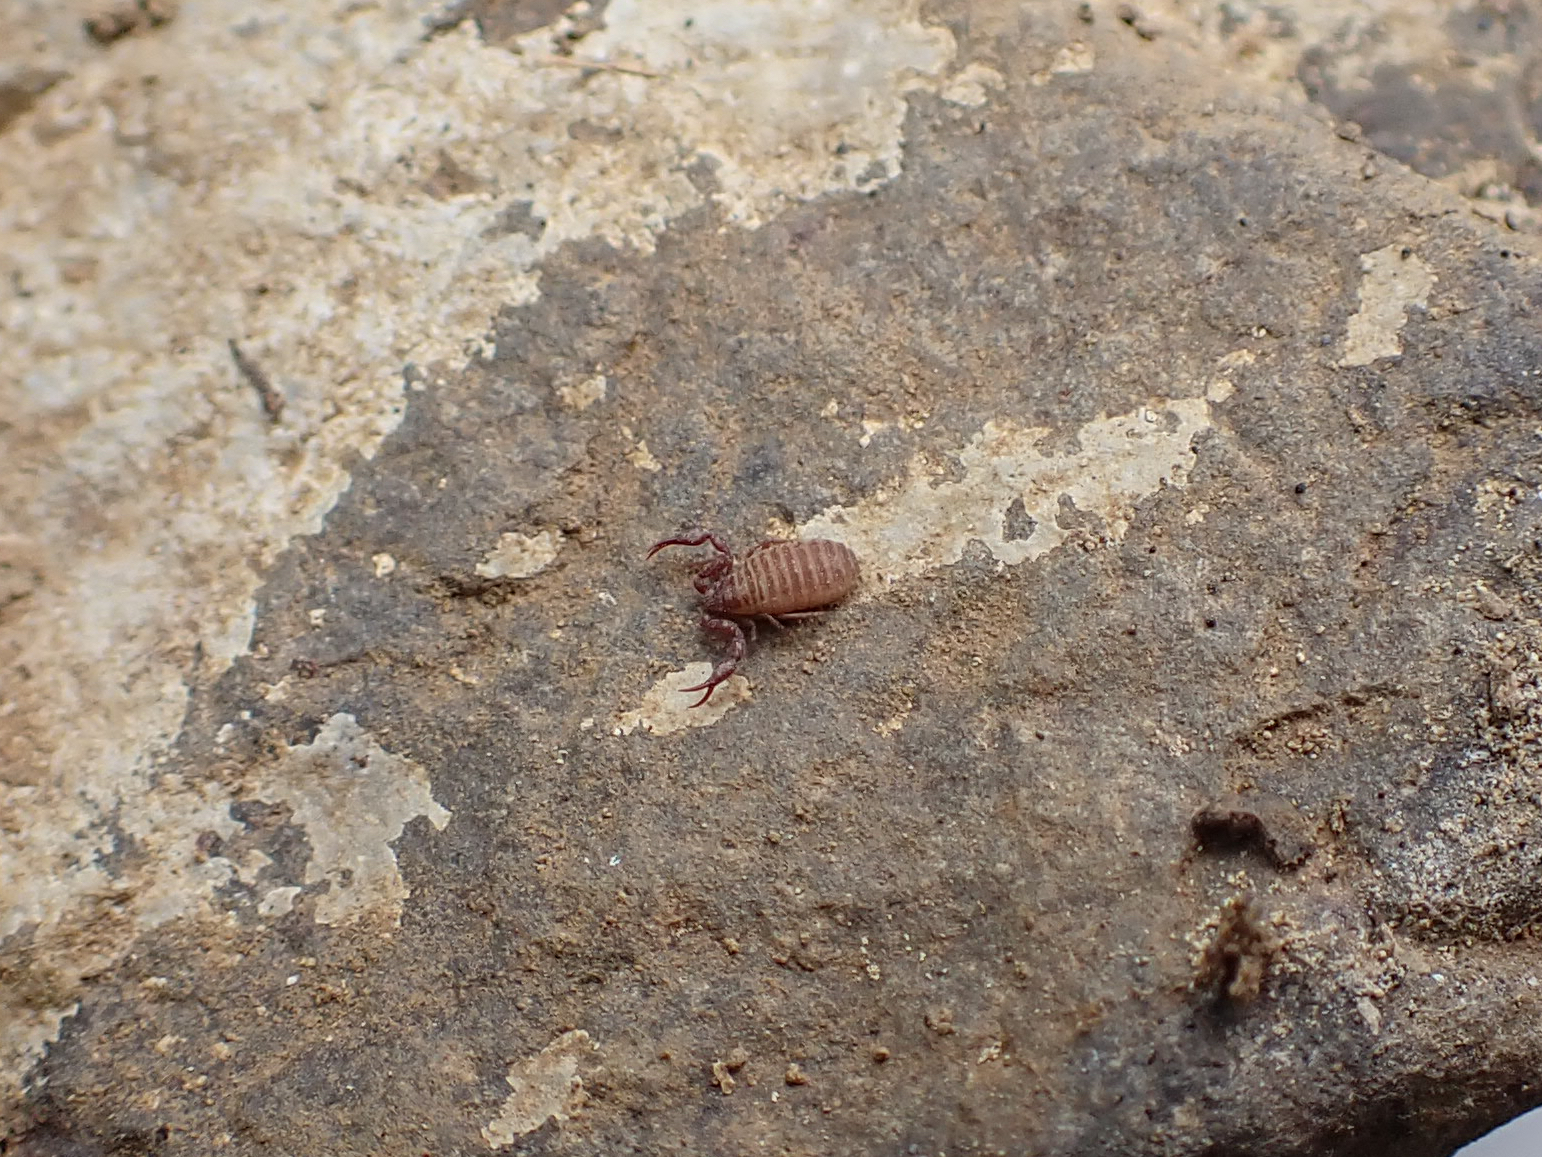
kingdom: Animalia
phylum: Arthropoda
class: Arachnida
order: Pseudoscorpiones
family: Chernetidae
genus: Wyochernes
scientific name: Wyochernes asiaticus
